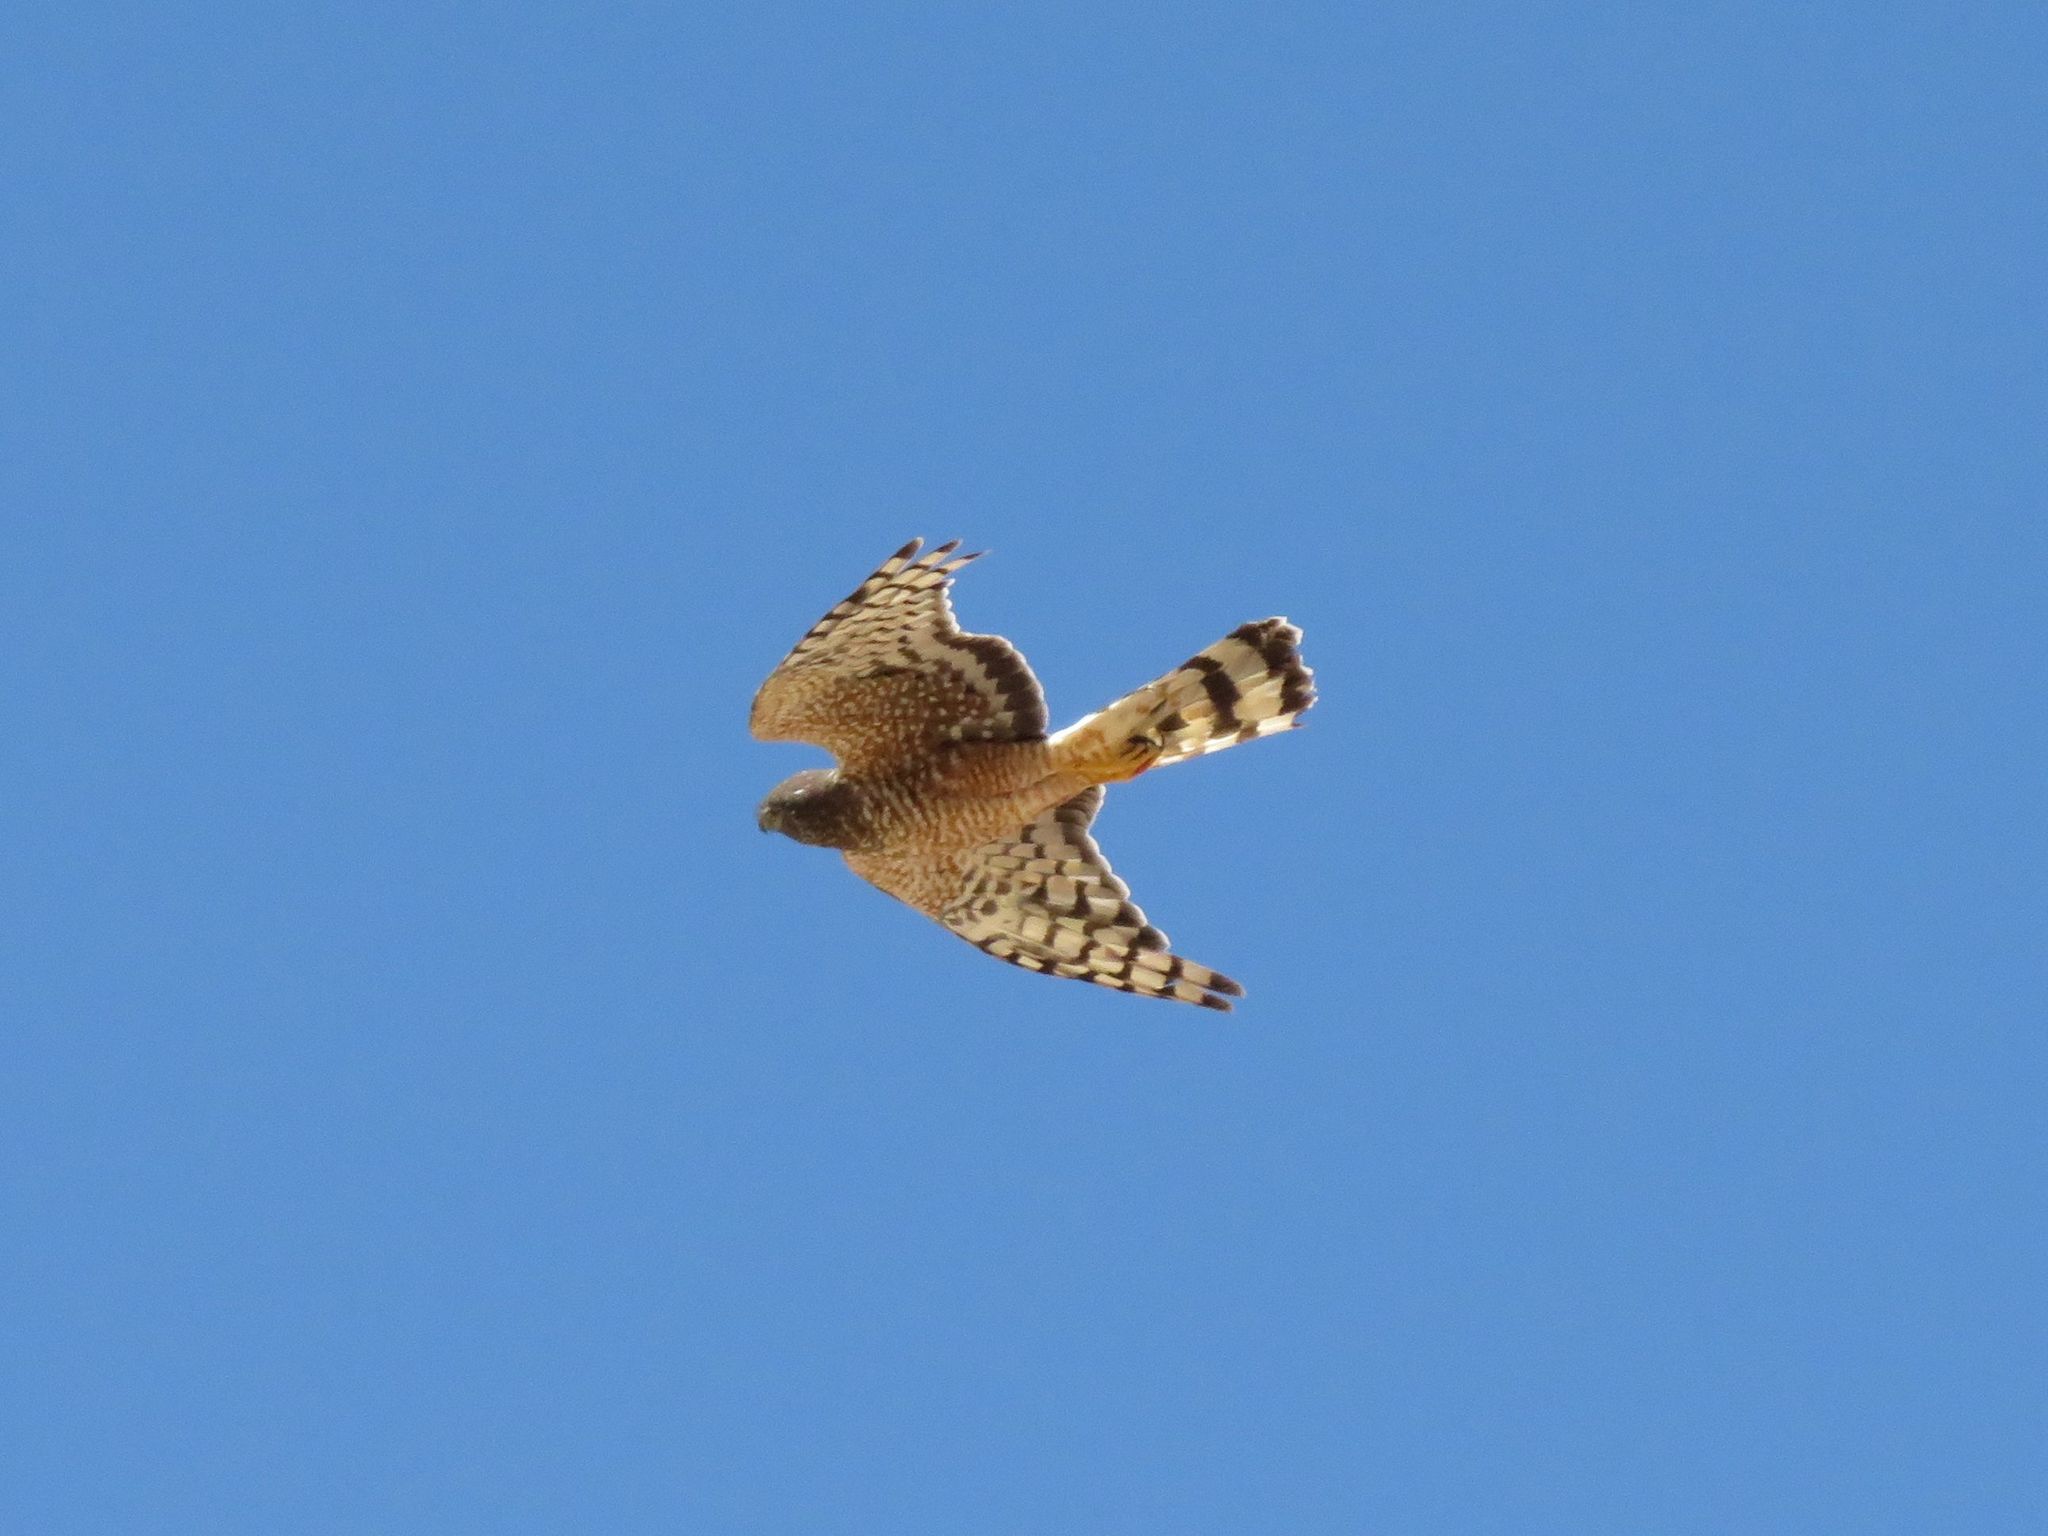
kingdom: Animalia
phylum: Chordata
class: Aves
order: Accipitriformes
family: Accipitridae
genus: Circus
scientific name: Circus cinereus
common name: Cinereous harrier
